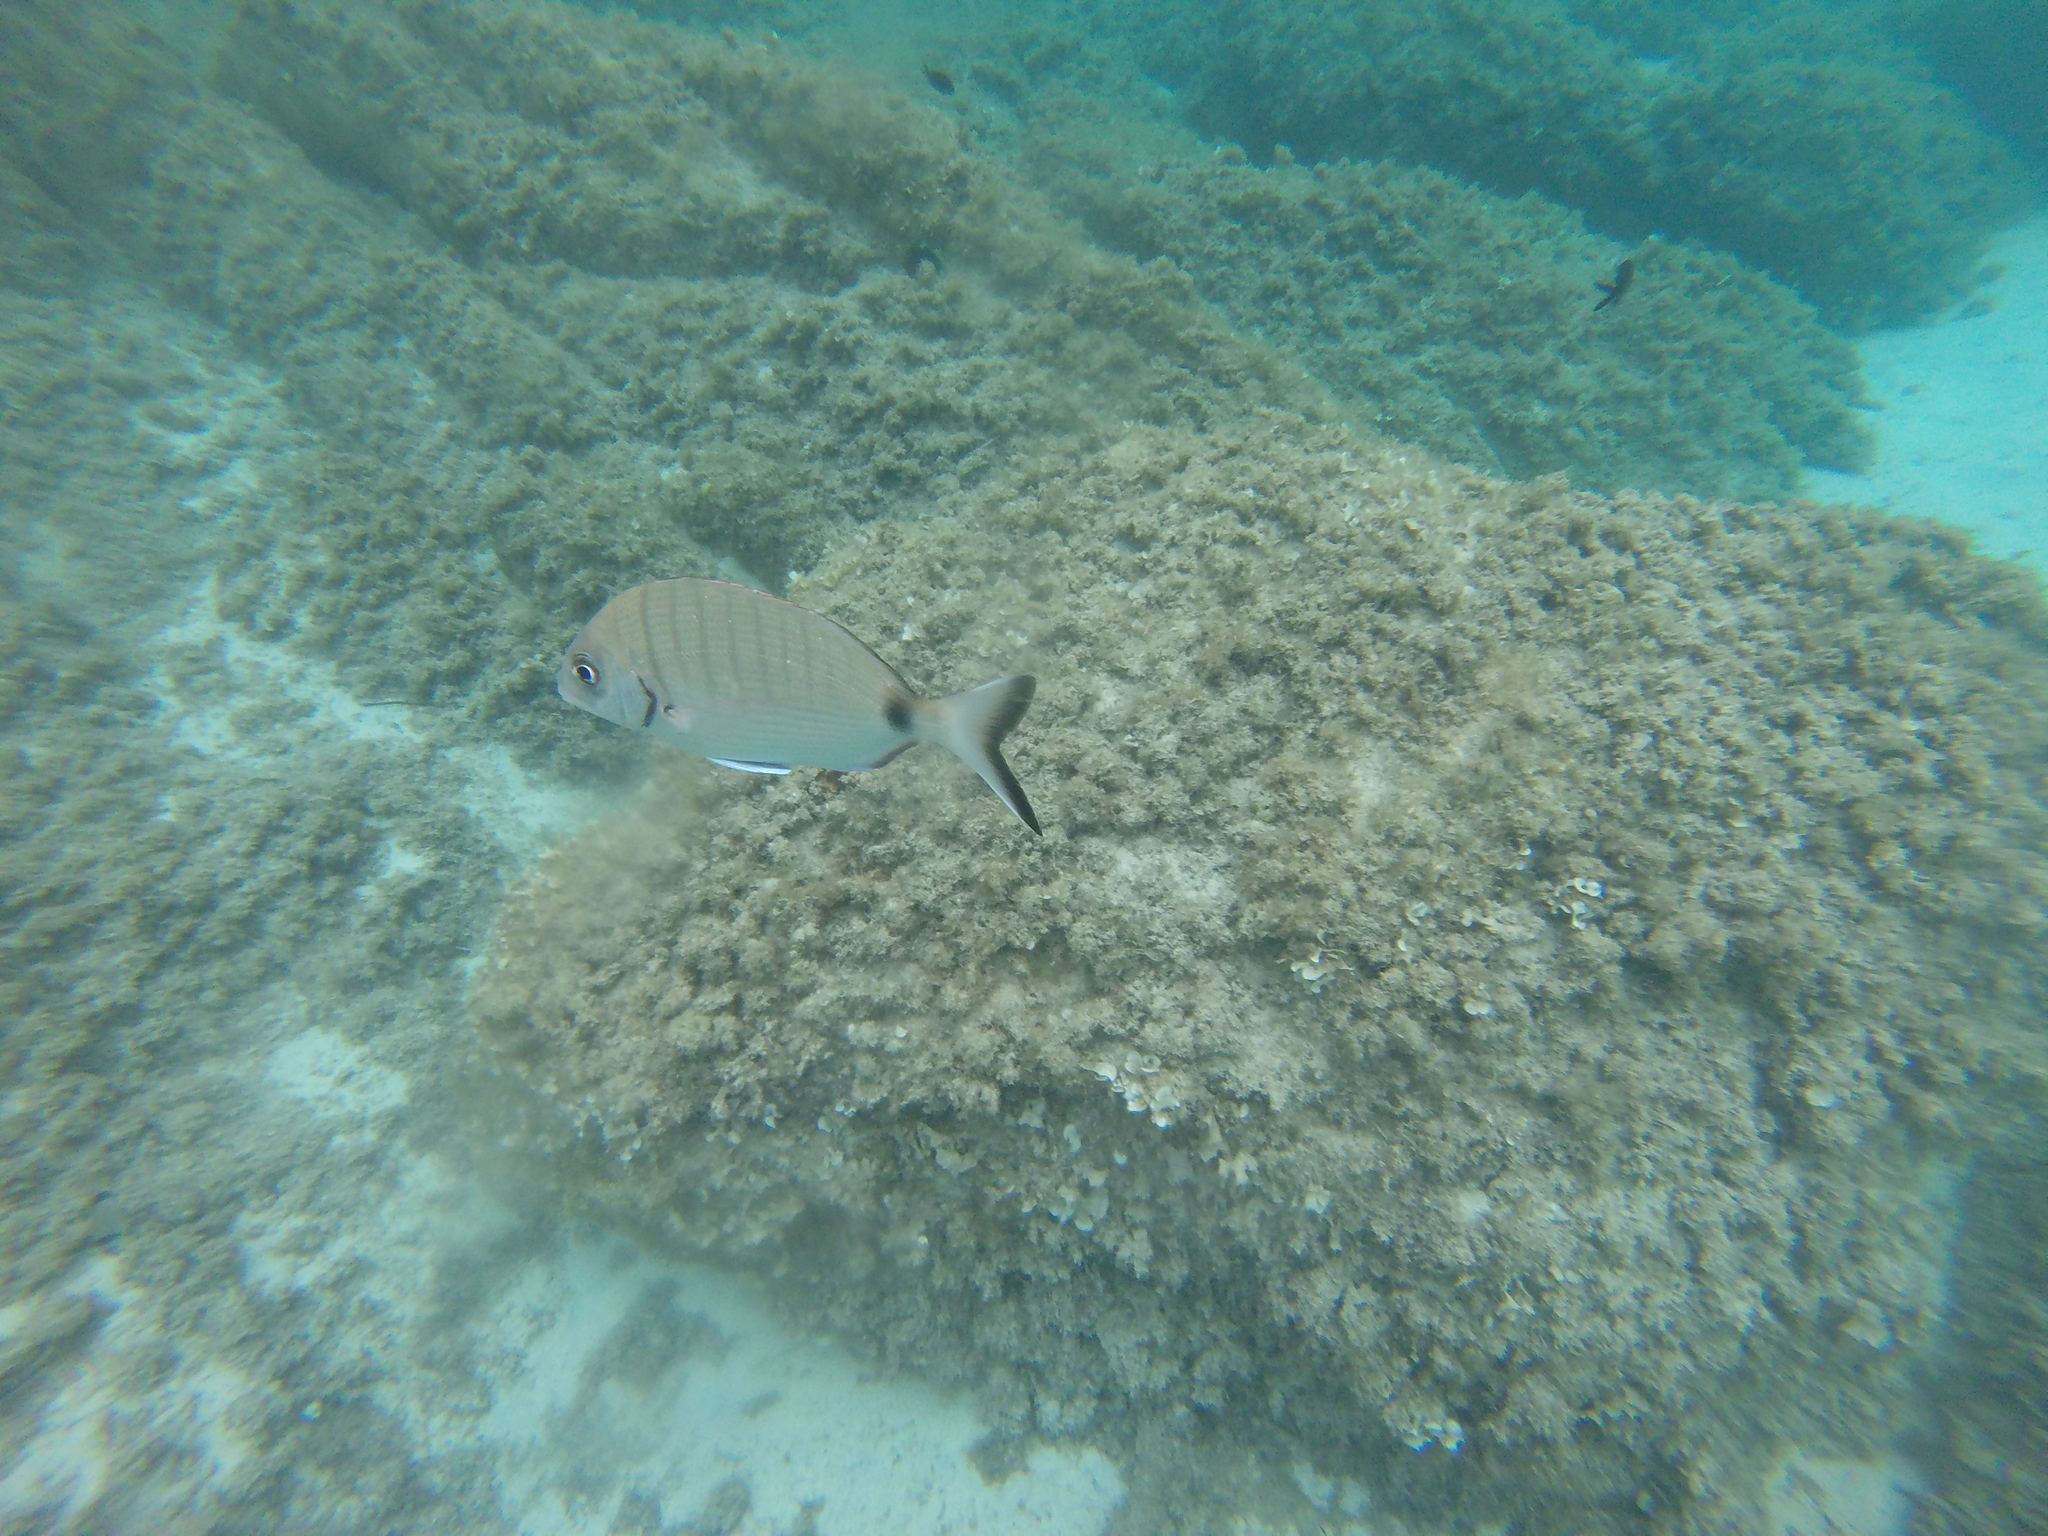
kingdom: Animalia
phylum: Chordata
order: Perciformes
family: Sparidae
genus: Diplodus
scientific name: Diplodus sargus
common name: White seabream
